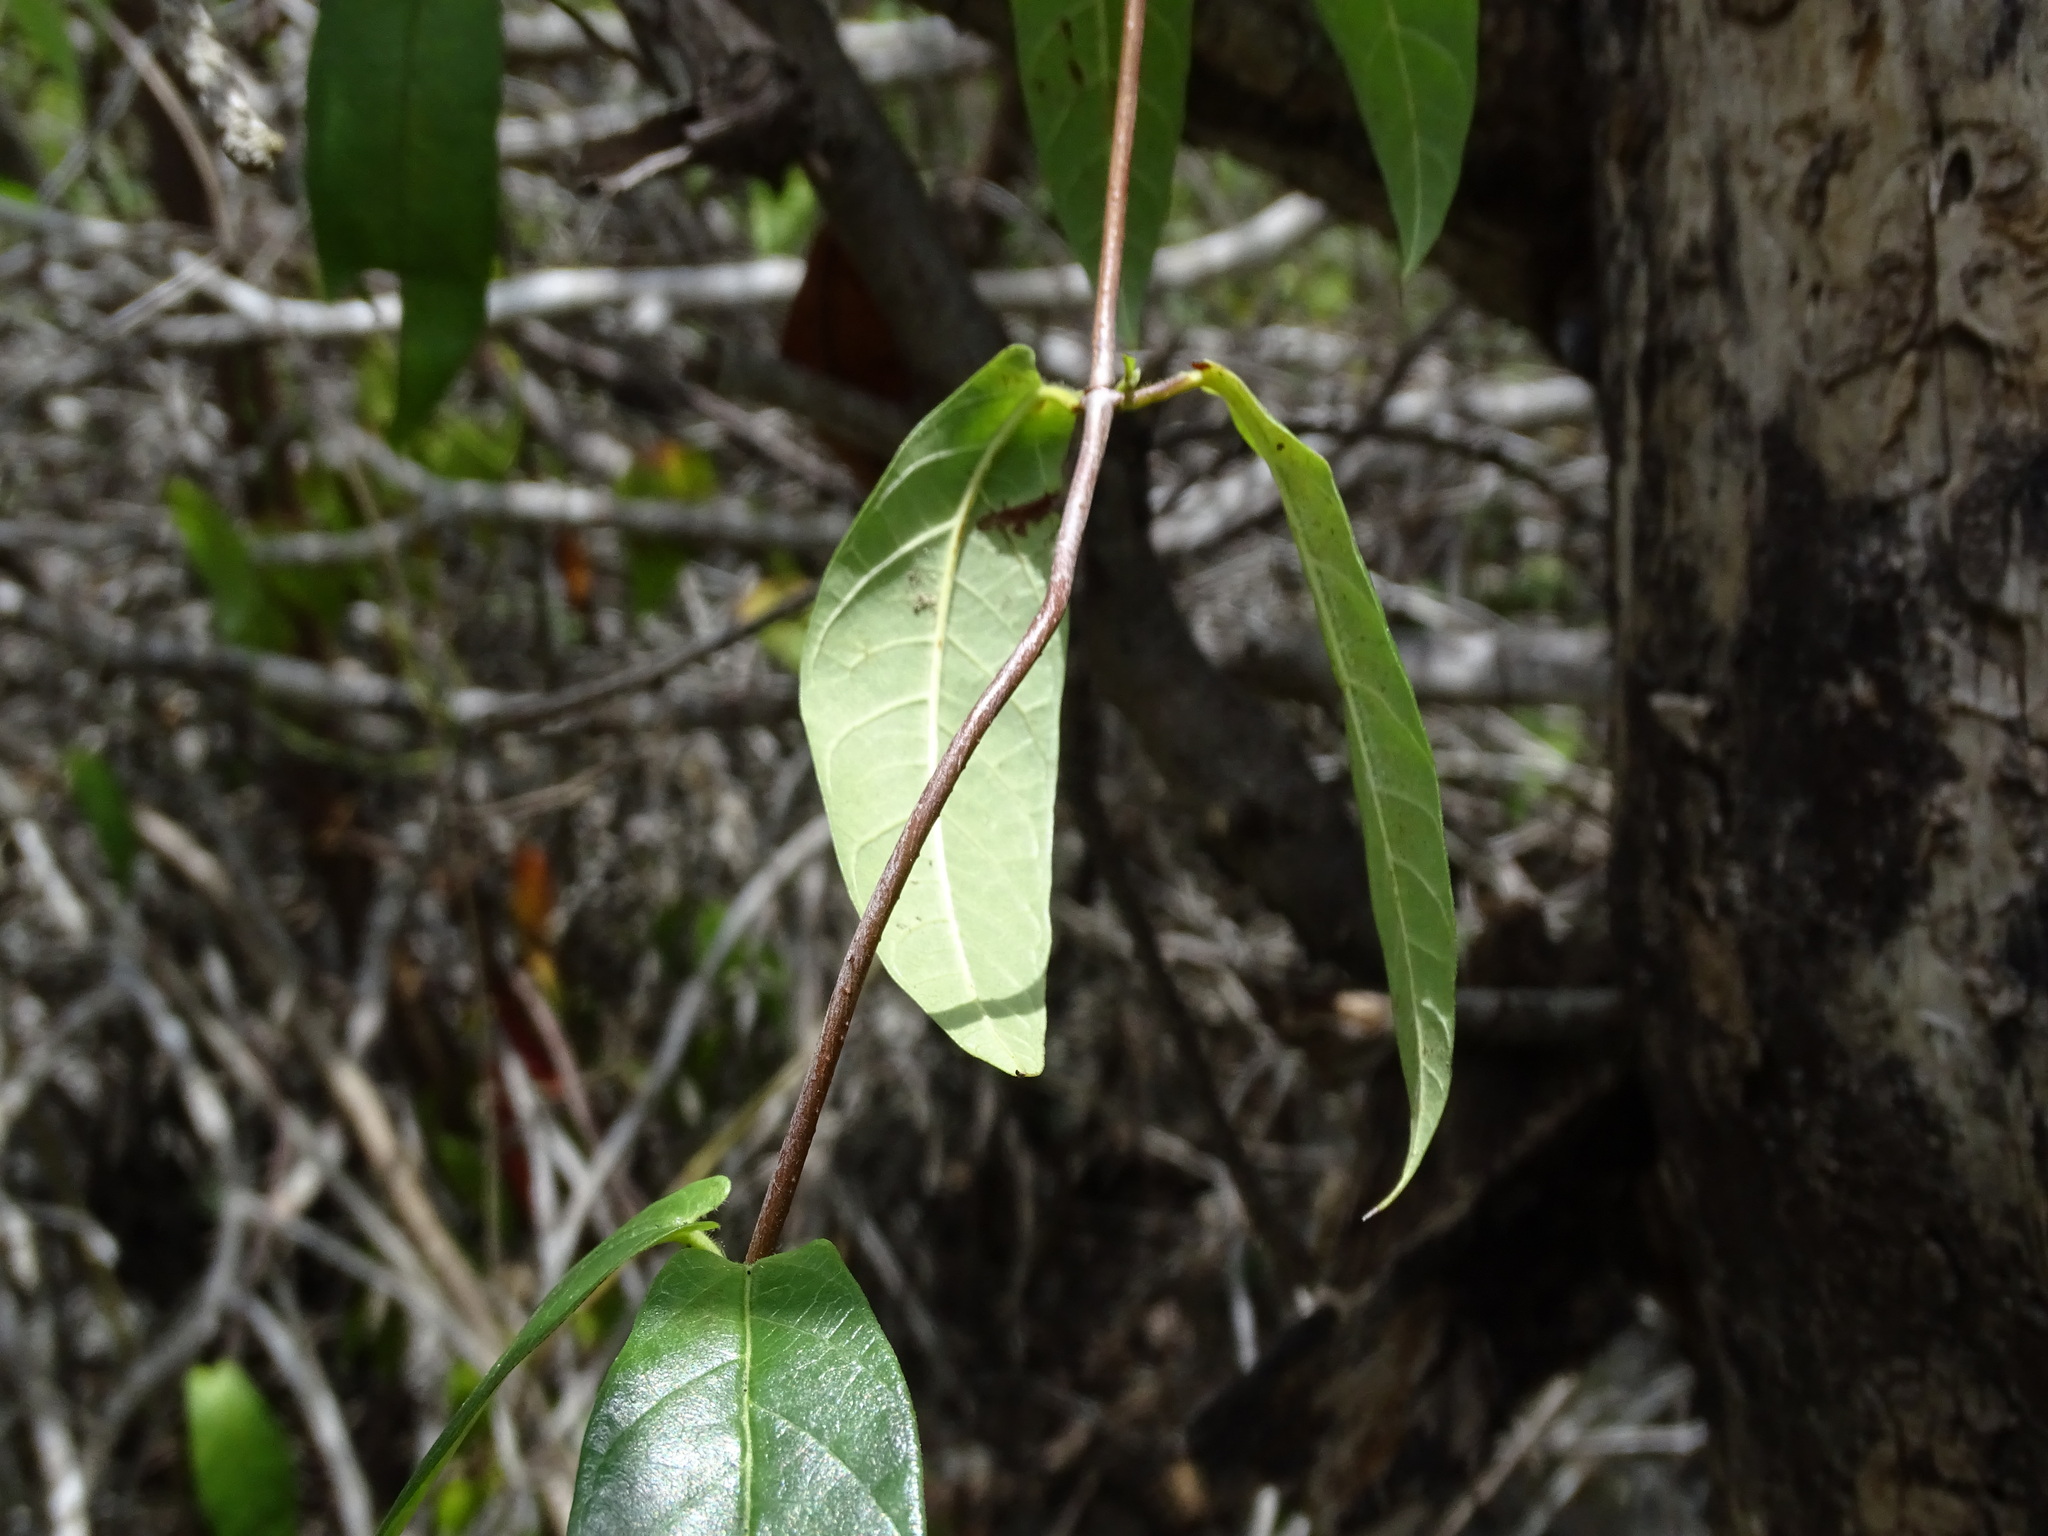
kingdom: Plantae
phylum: Tracheophyta
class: Magnoliopsida
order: Gentianales
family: Apocynaceae
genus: Mandevilla
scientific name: Mandevilla subsagittata
